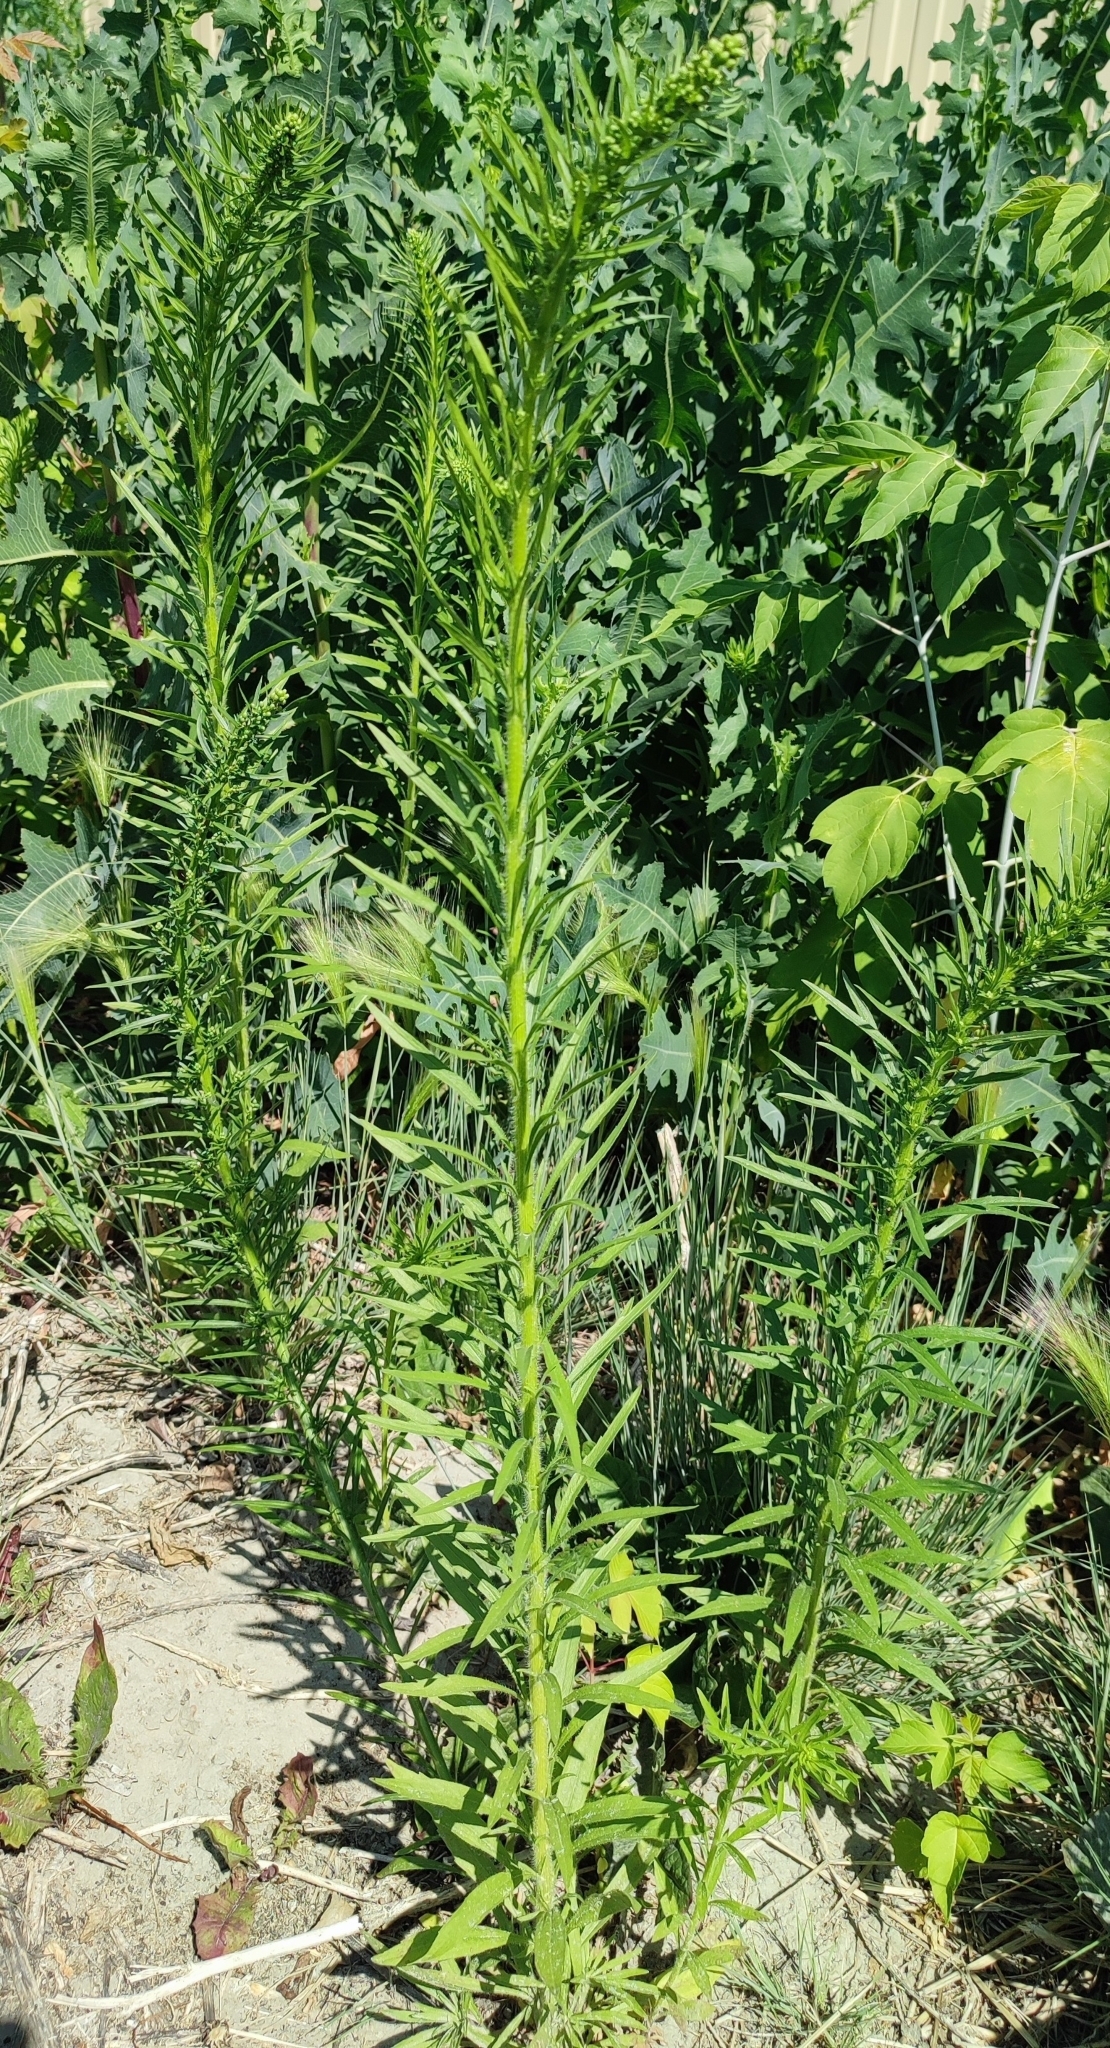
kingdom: Plantae
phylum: Tracheophyta
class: Magnoliopsida
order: Asterales
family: Asteraceae
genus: Erigeron
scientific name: Erigeron canadensis
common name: Canadian fleabane
